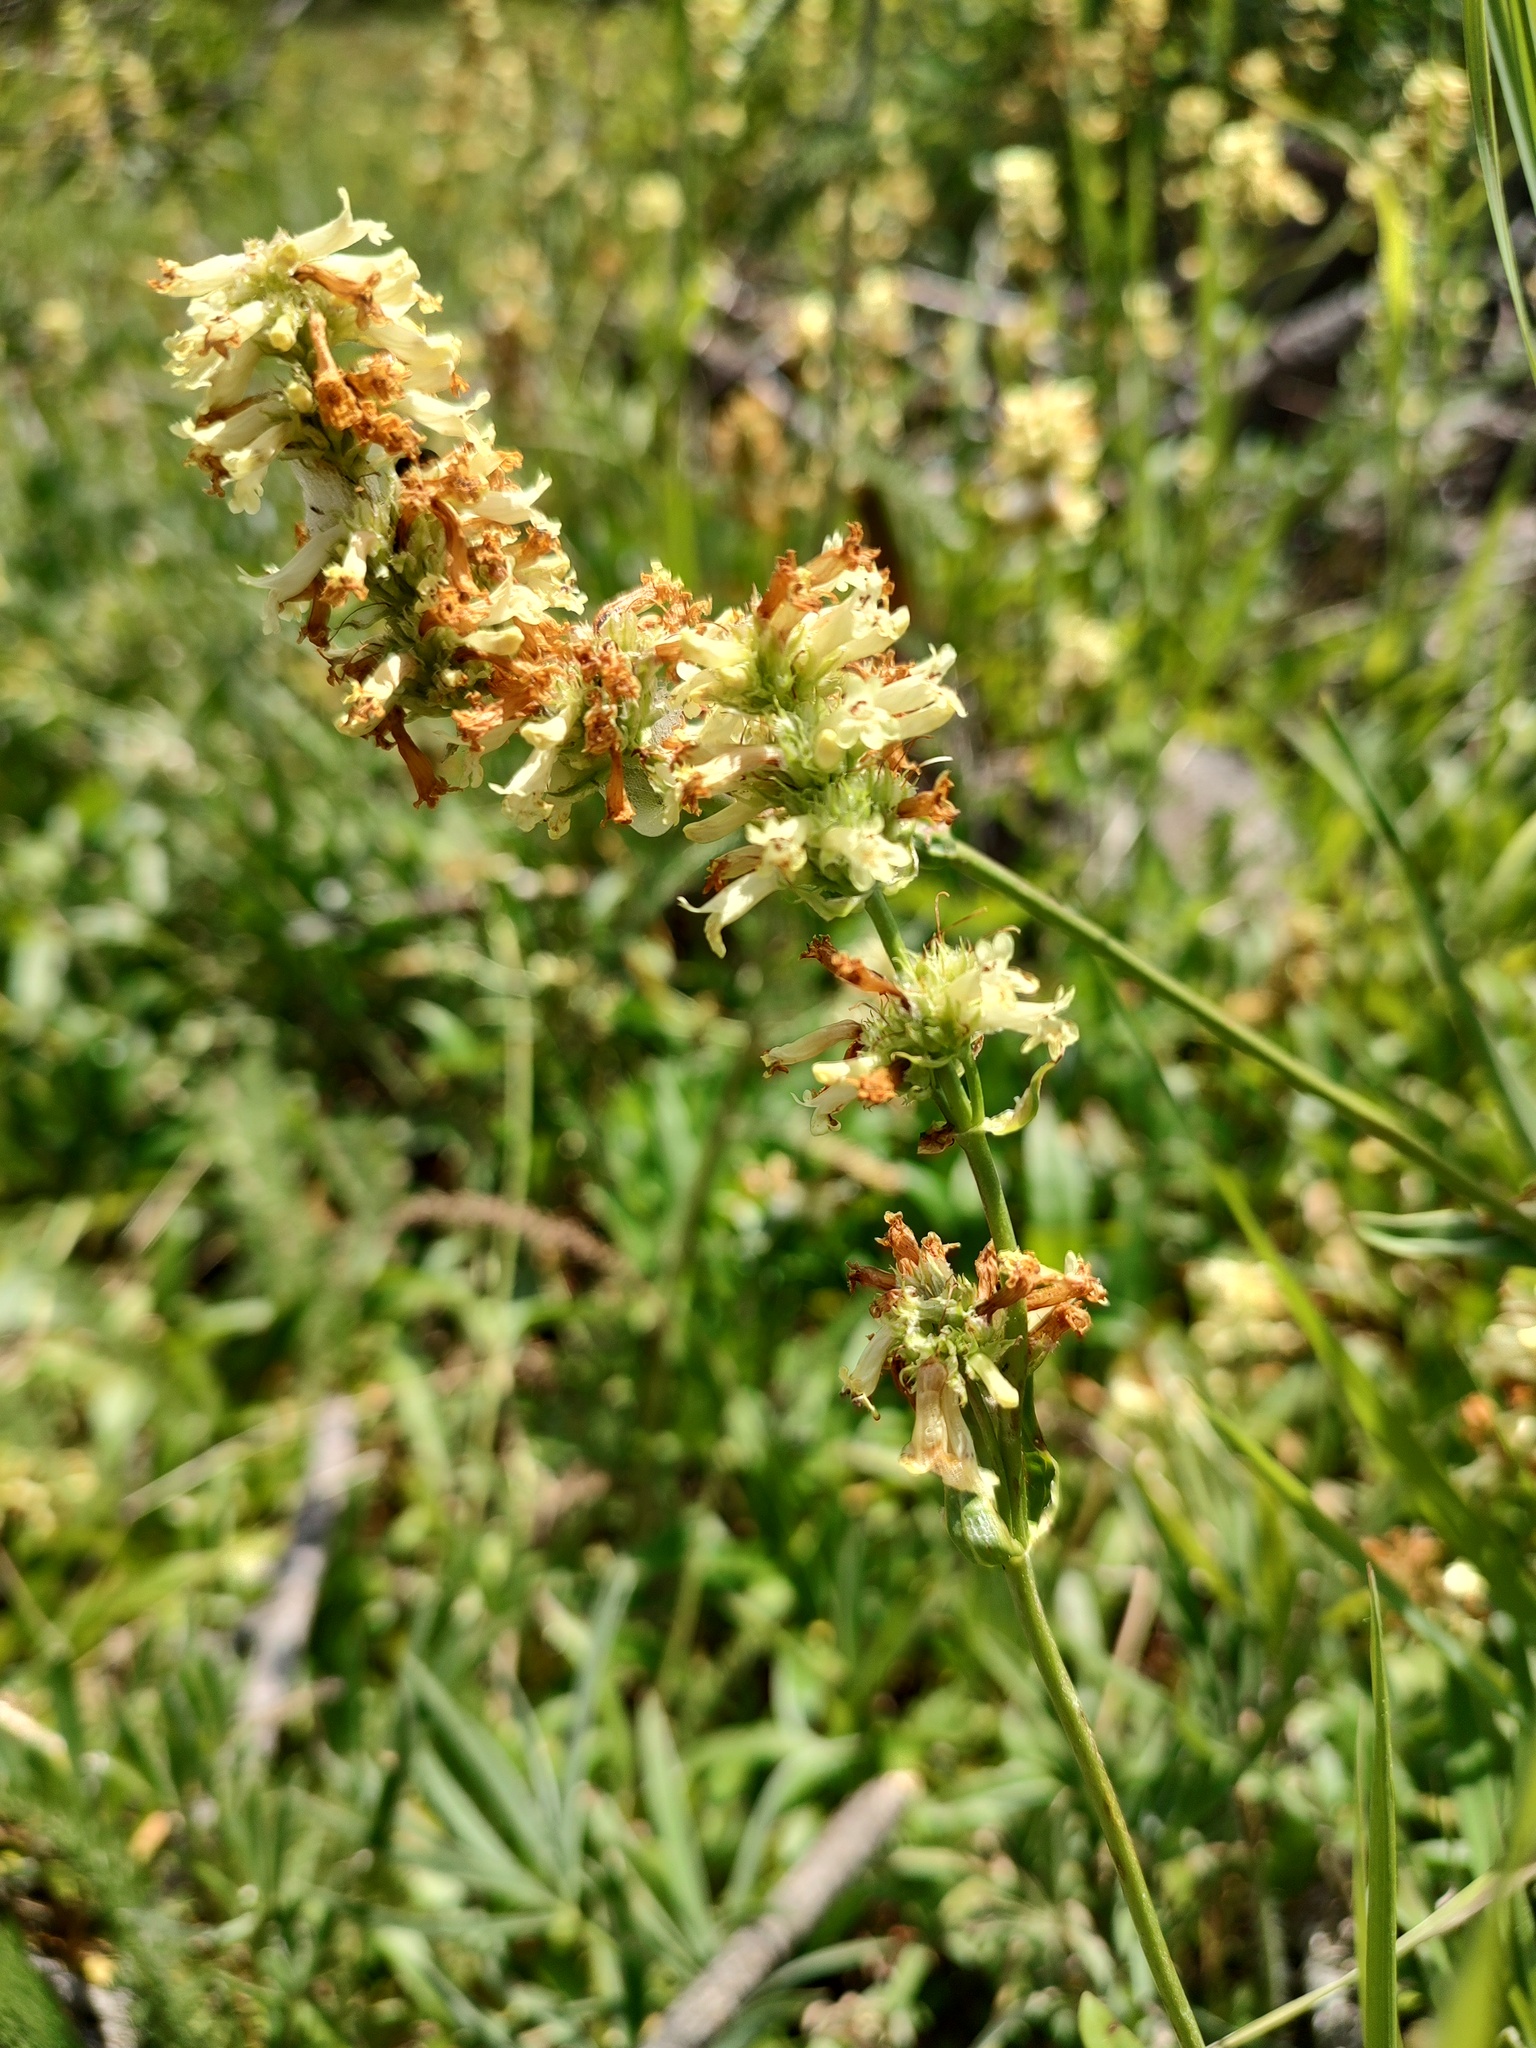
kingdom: Plantae
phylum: Tracheophyta
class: Magnoliopsida
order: Lamiales
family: Plantaginaceae
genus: Penstemon
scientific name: Penstemon confertus
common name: Lesser yellow beardtongue
